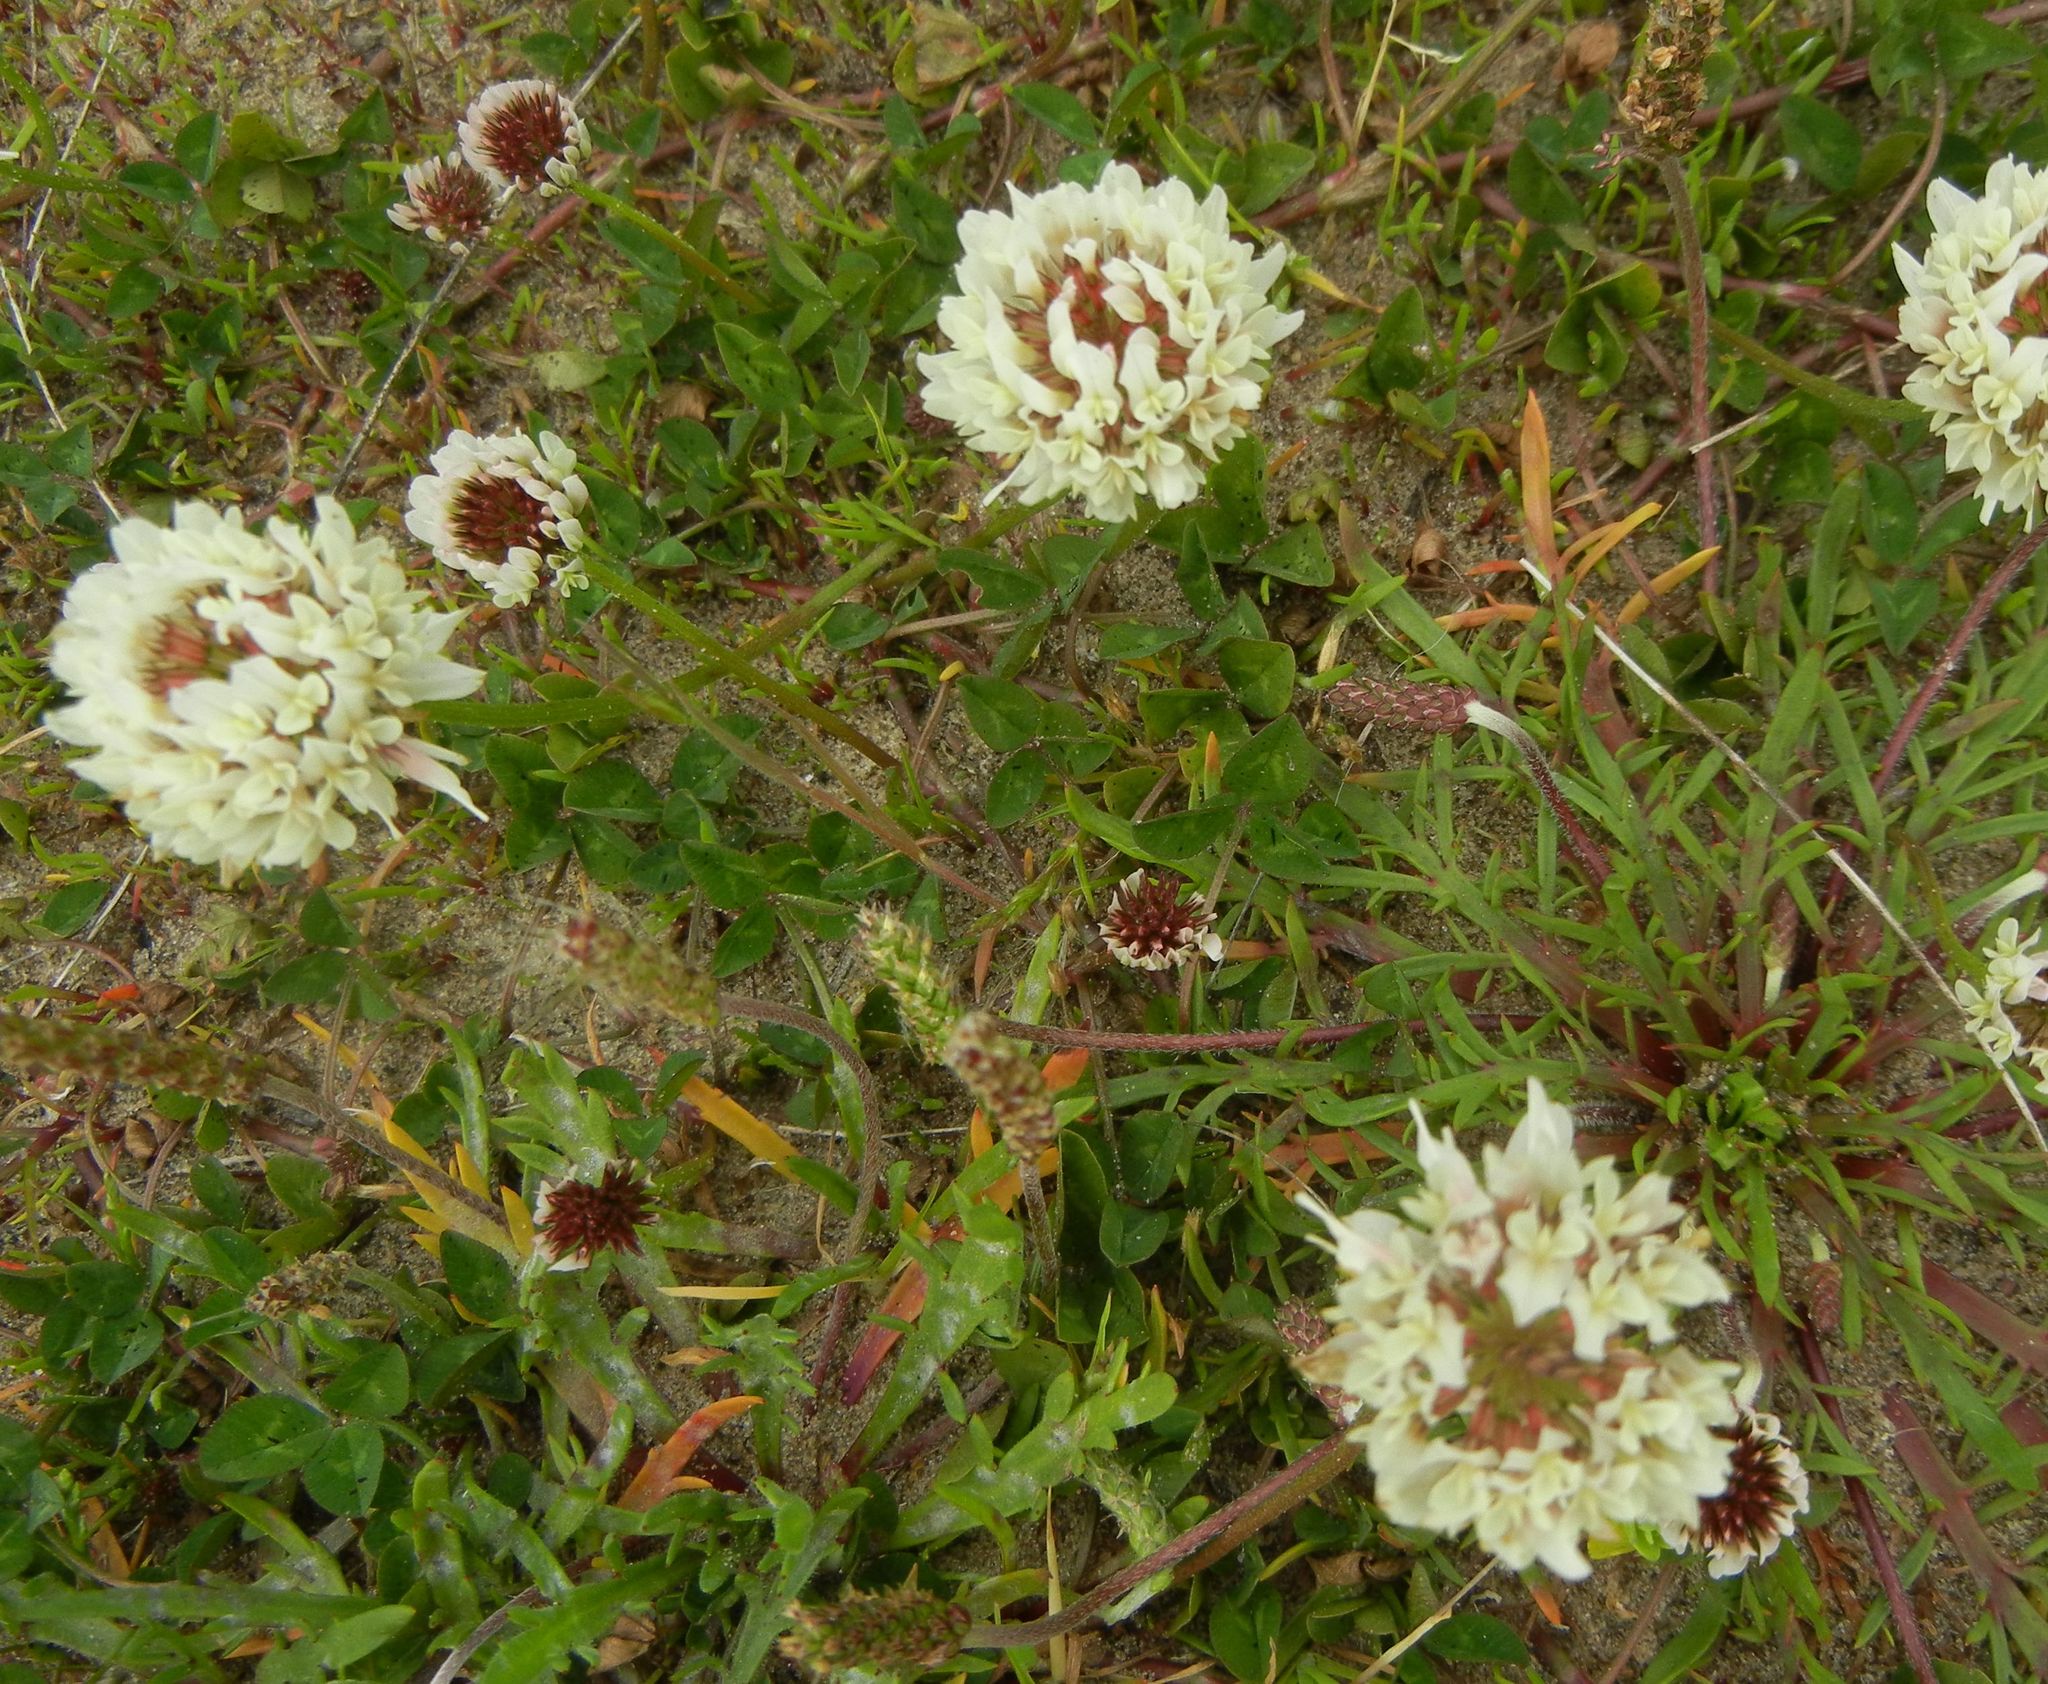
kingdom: Plantae
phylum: Tracheophyta
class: Magnoliopsida
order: Fabales
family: Fabaceae
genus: Trifolium
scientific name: Trifolium repens
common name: White clover
